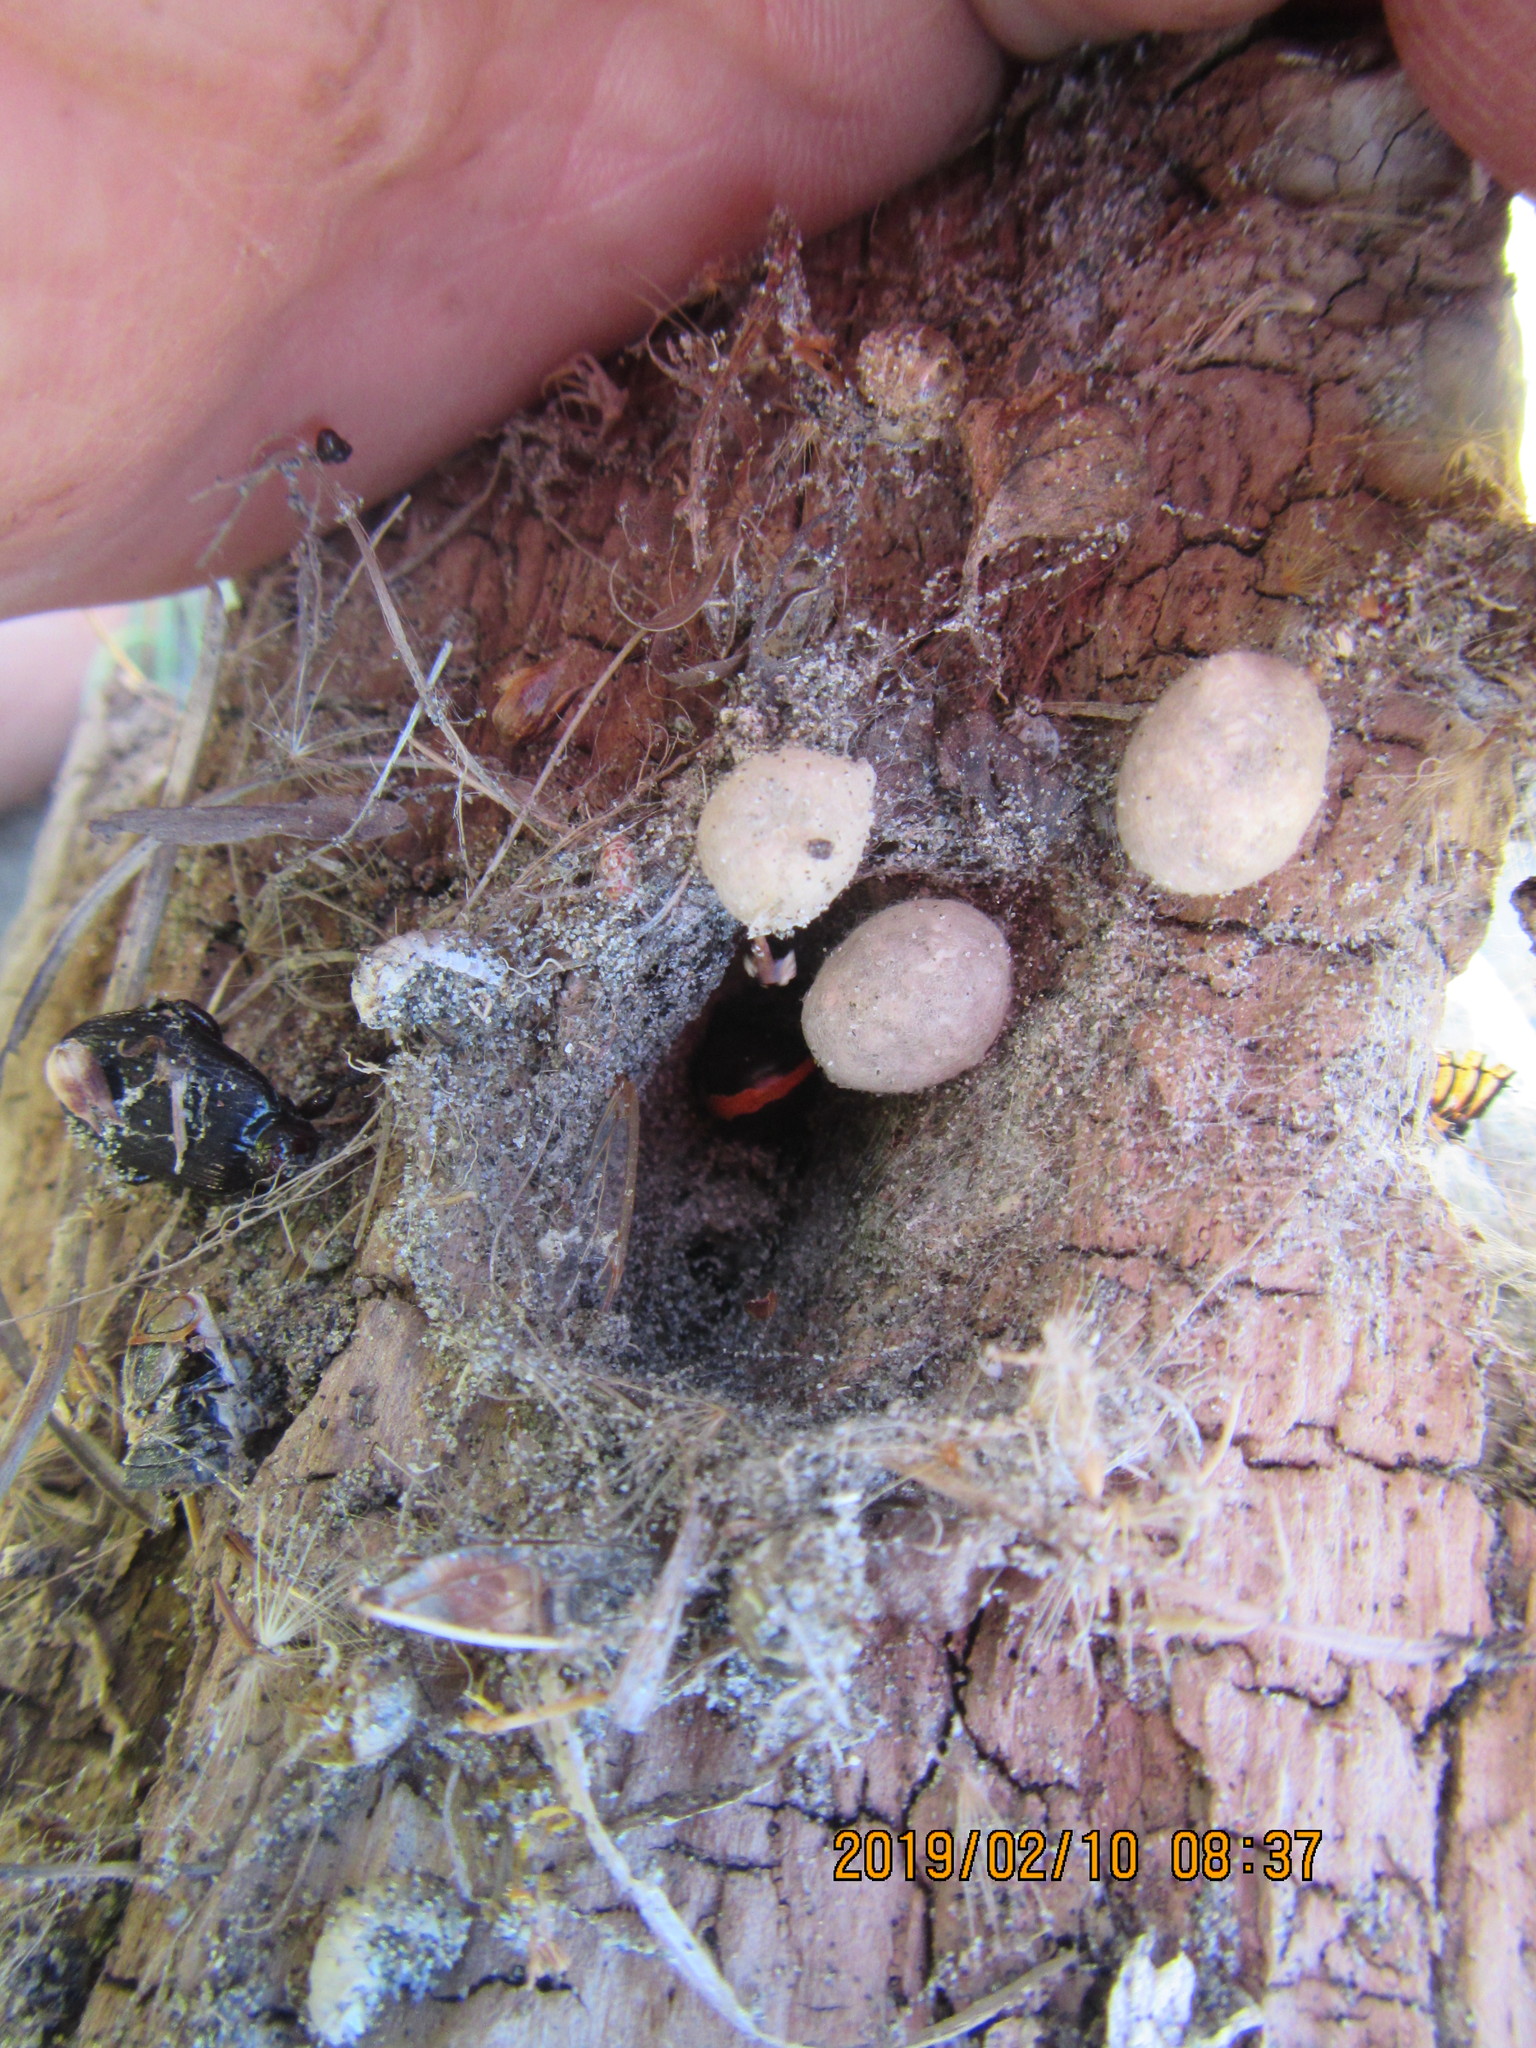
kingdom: Animalia
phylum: Arthropoda
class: Arachnida
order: Araneae
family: Theridiidae
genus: Latrodectus
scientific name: Latrodectus katipo
